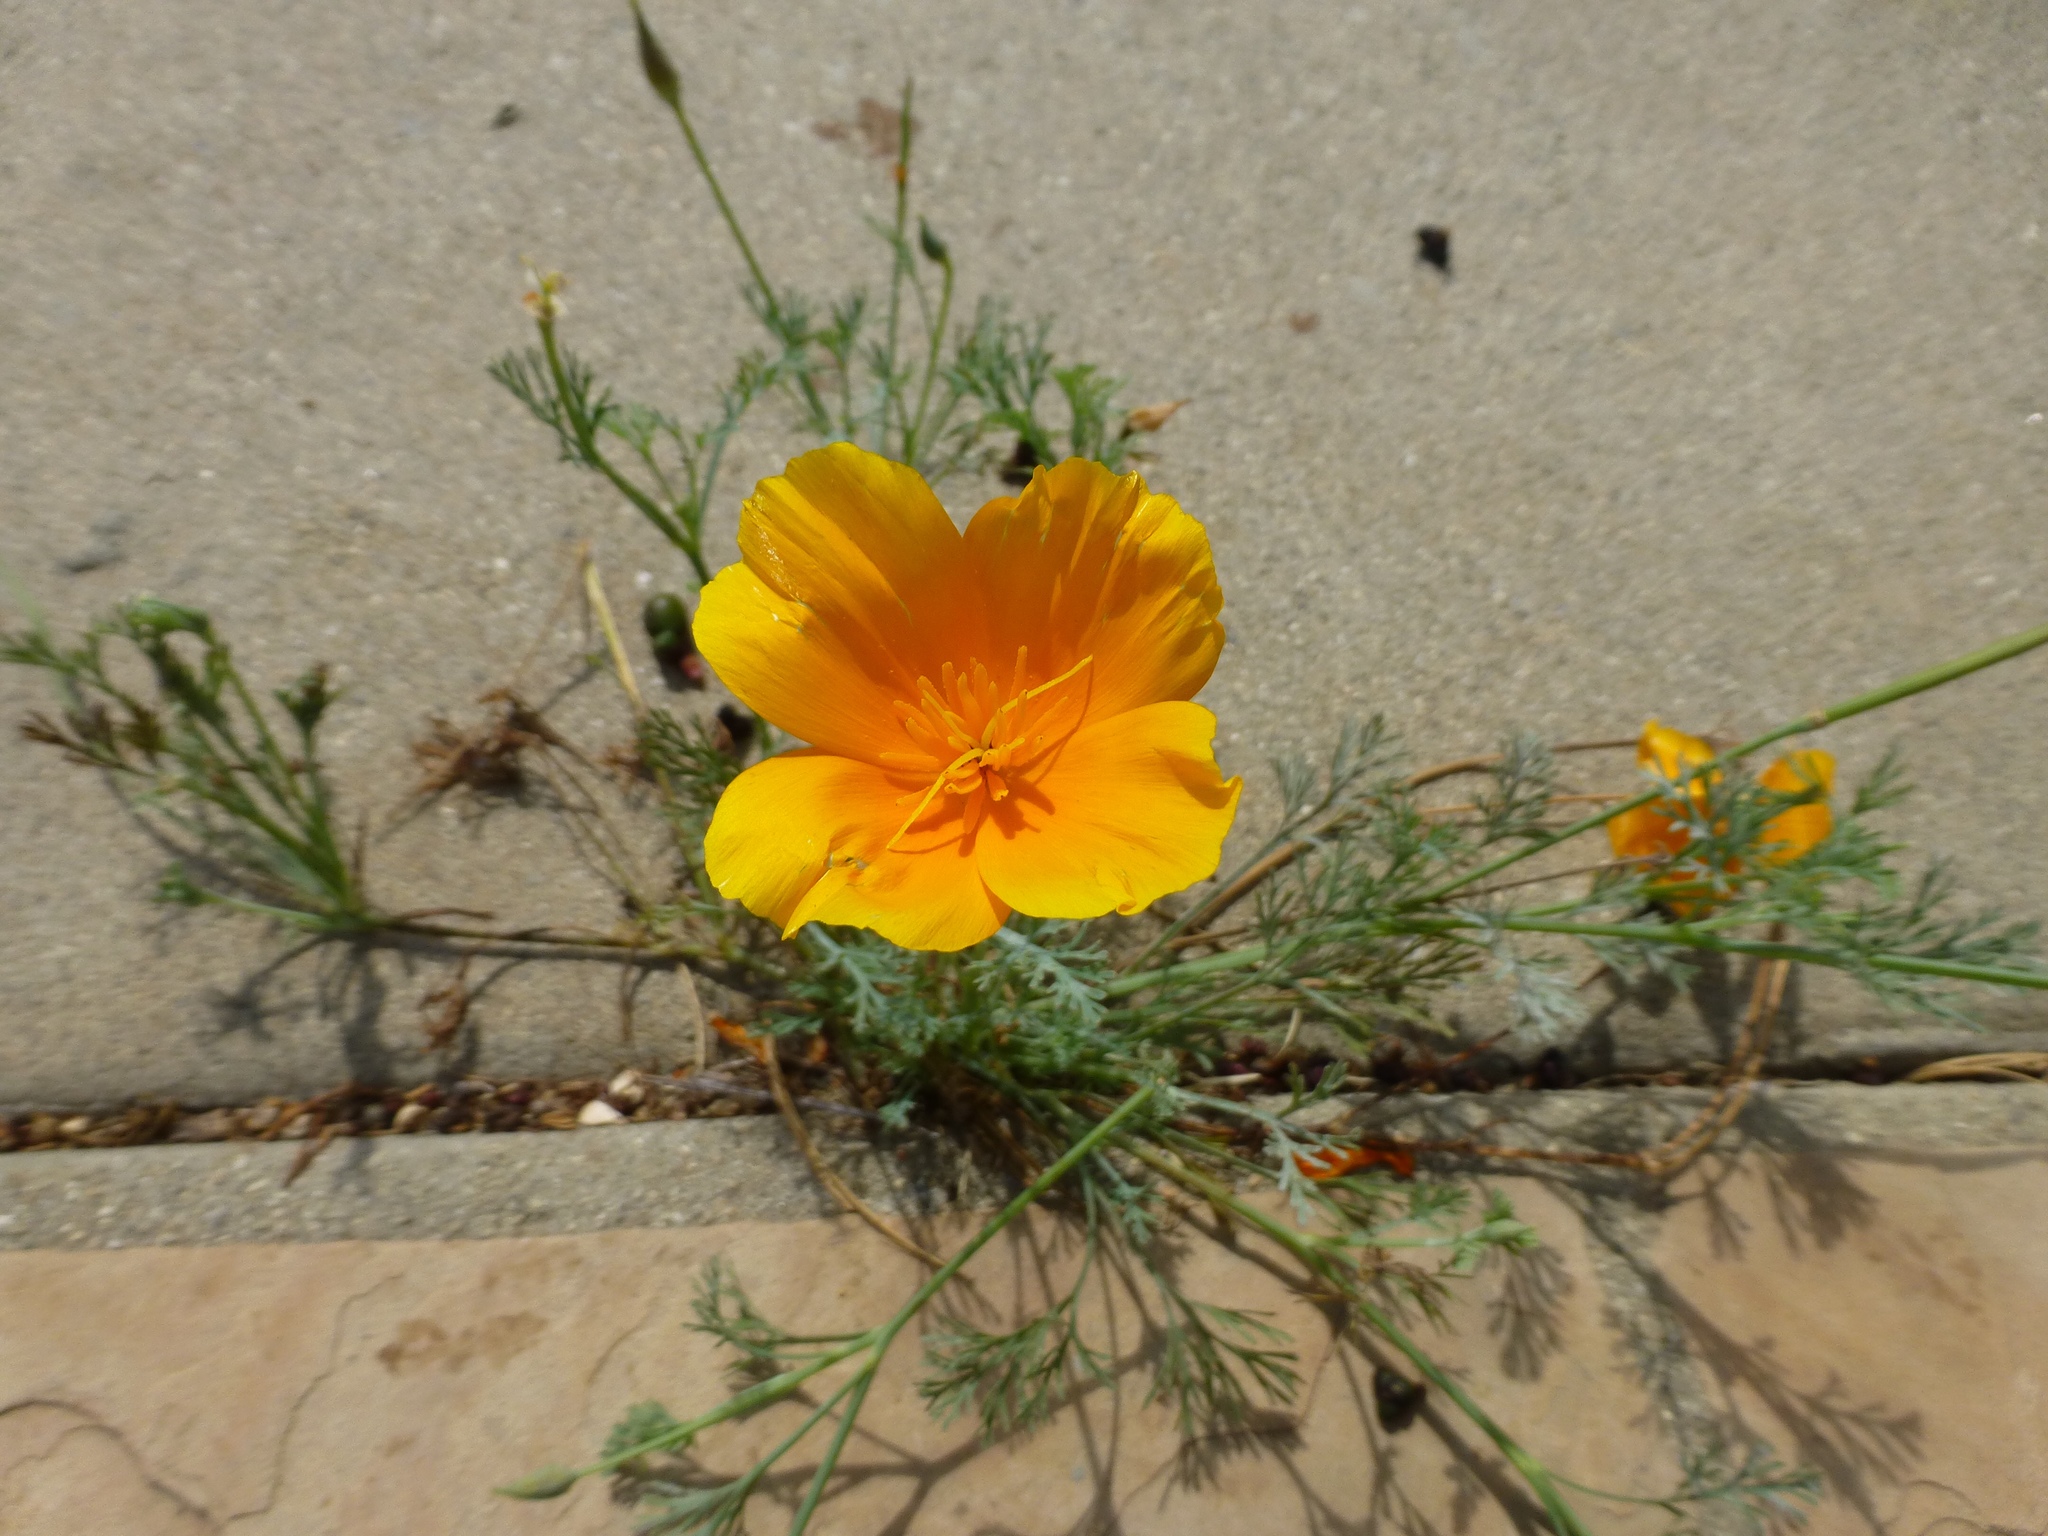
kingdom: Plantae
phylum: Tracheophyta
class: Magnoliopsida
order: Ranunculales
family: Papaveraceae
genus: Eschscholzia
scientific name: Eschscholzia californica
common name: California poppy
